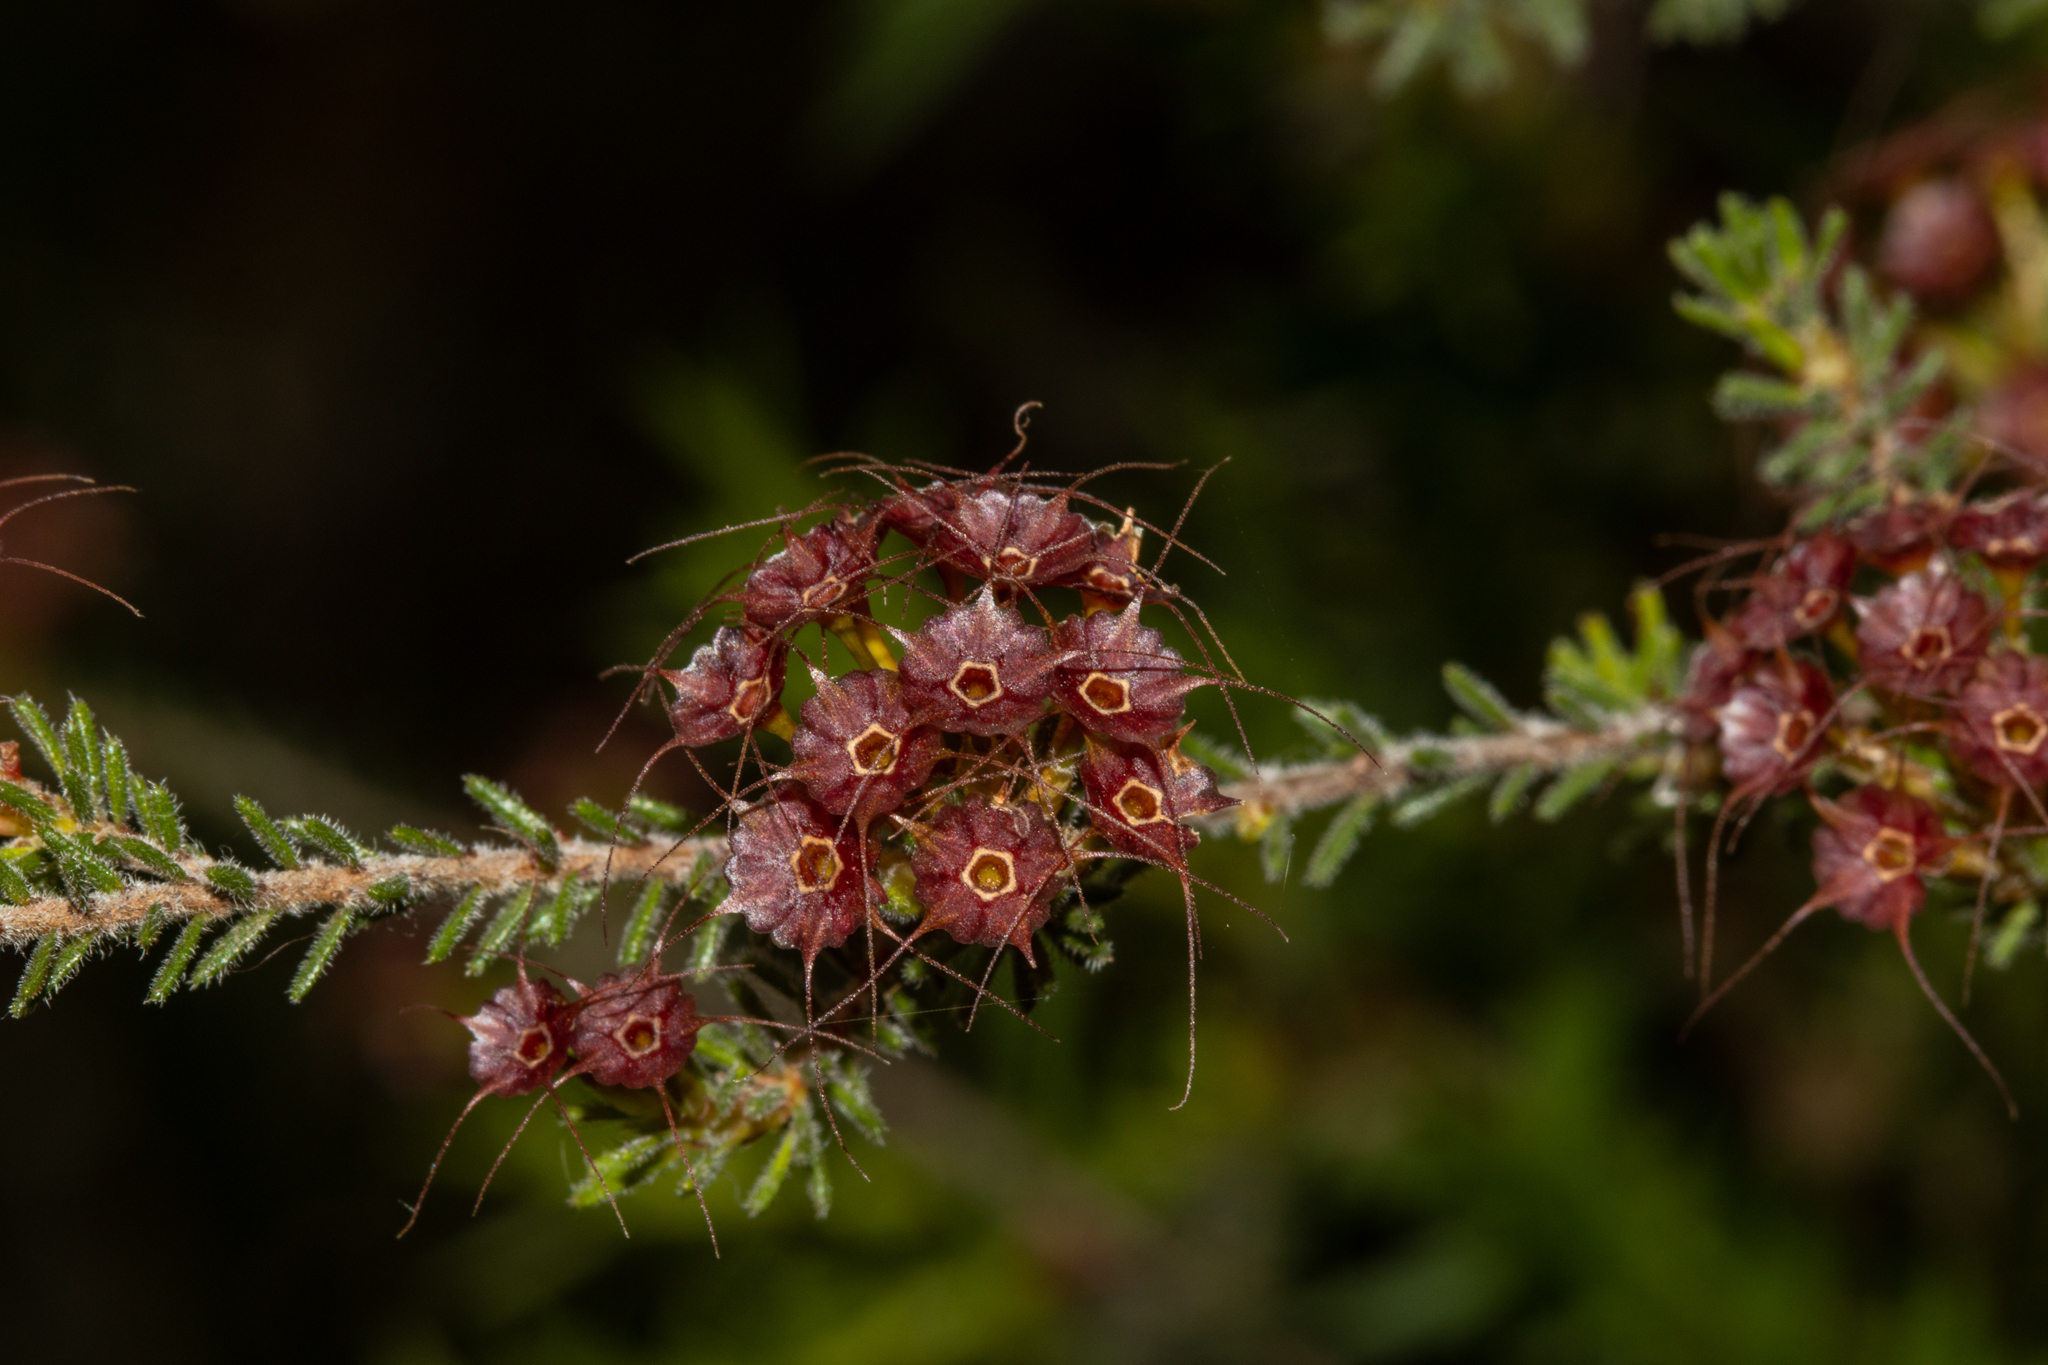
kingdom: Plantae
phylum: Tracheophyta
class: Magnoliopsida
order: Myrtales
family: Myrtaceae
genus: Calytrix
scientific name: Calytrix tetragona
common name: Common fringe myrtle
